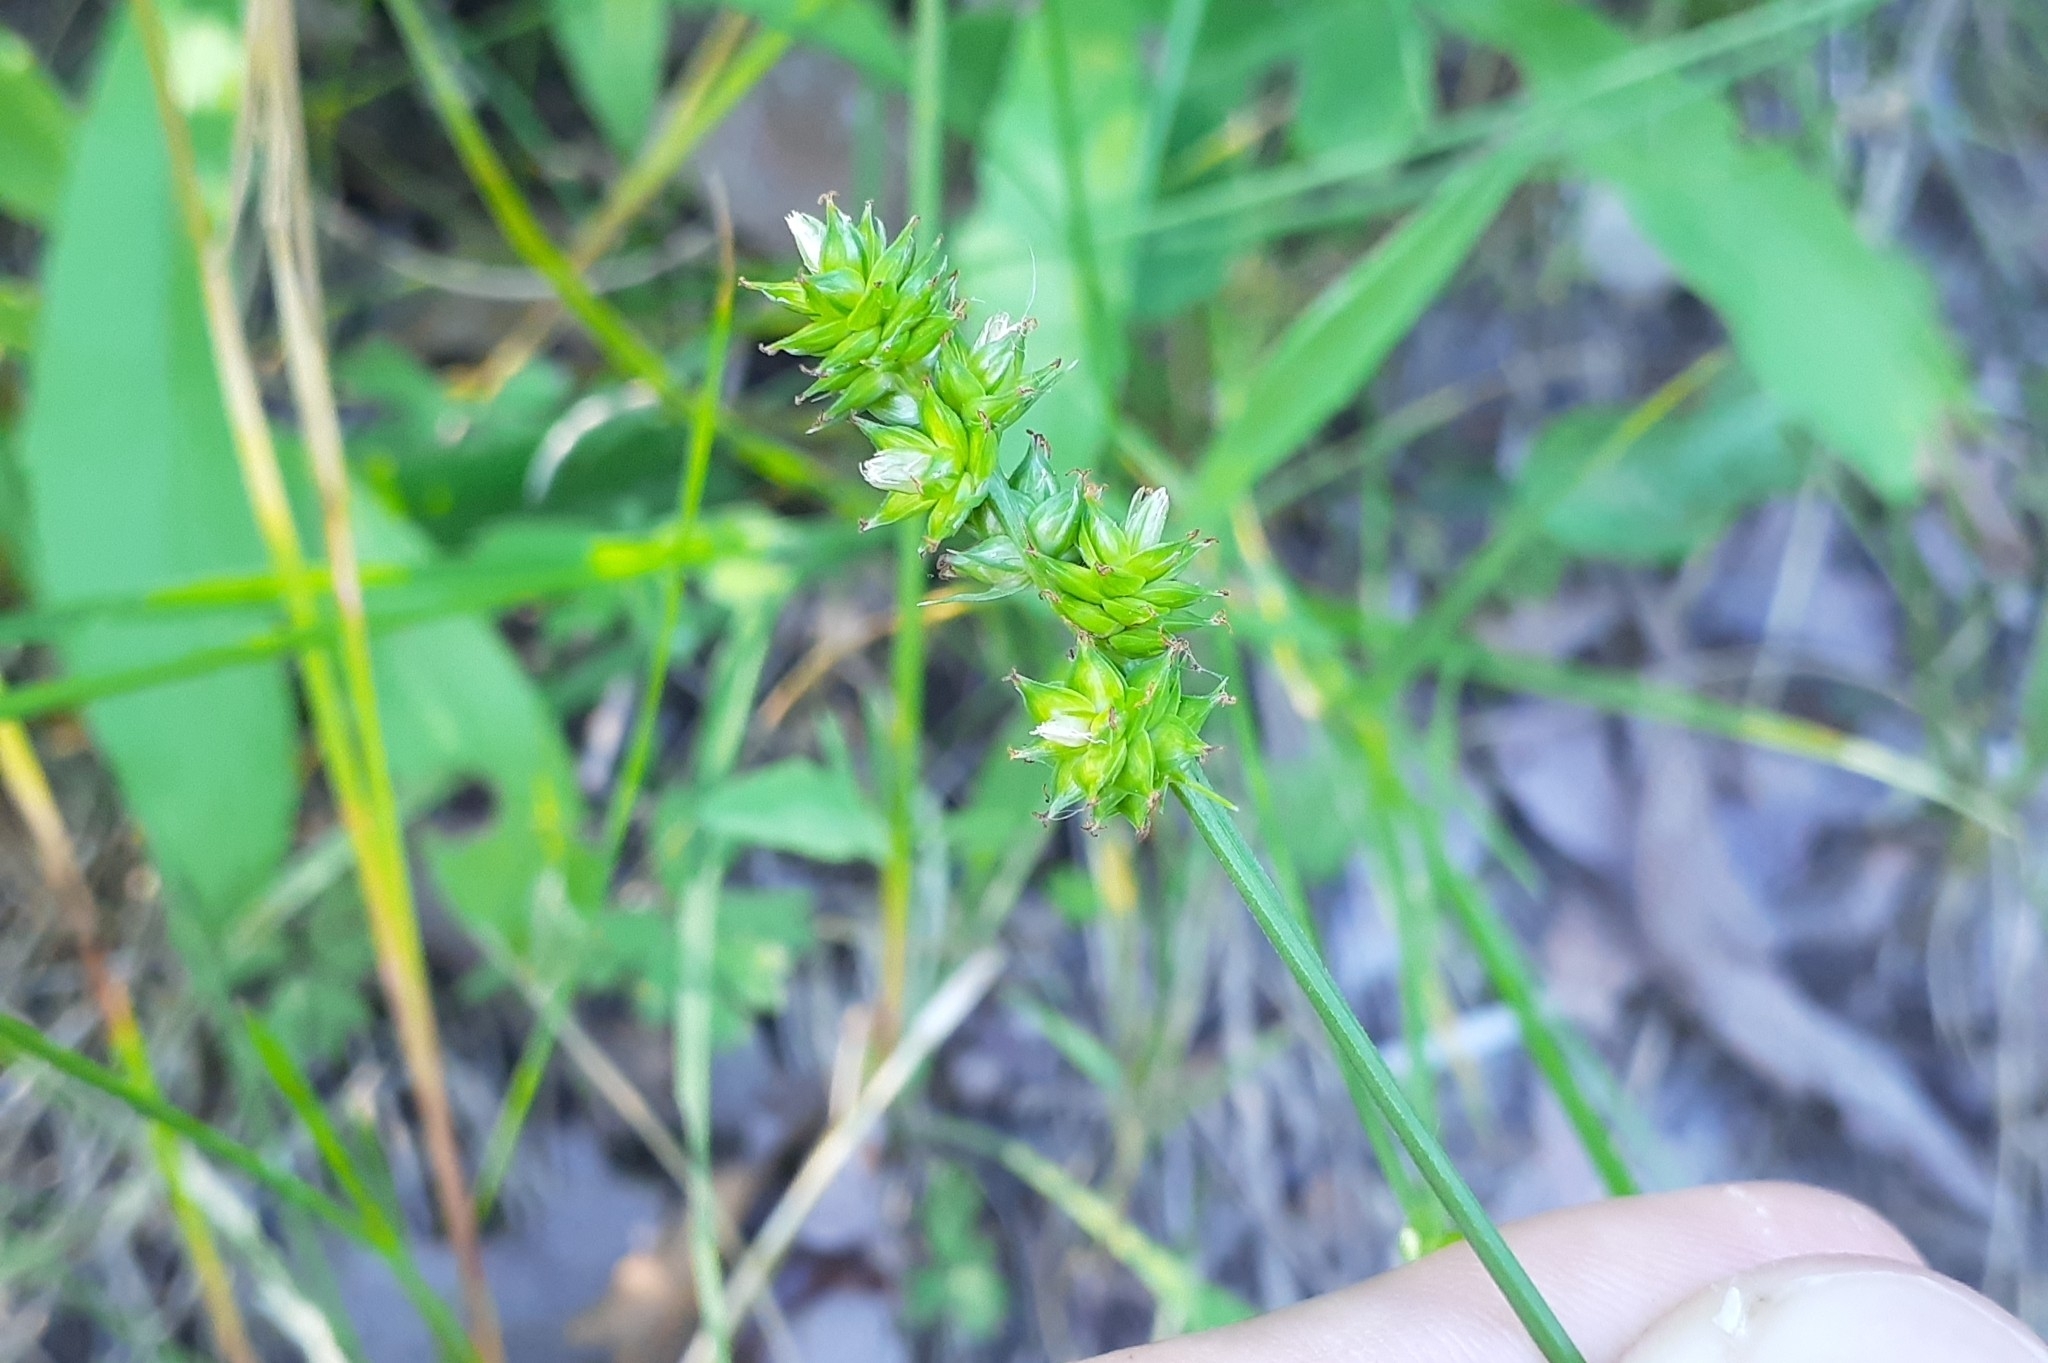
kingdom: Plantae
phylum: Tracheophyta
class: Liliopsida
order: Poales
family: Cyperaceae
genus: Carex
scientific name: Carex muehlenbergii
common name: Muhlenberg's bracted sedge
